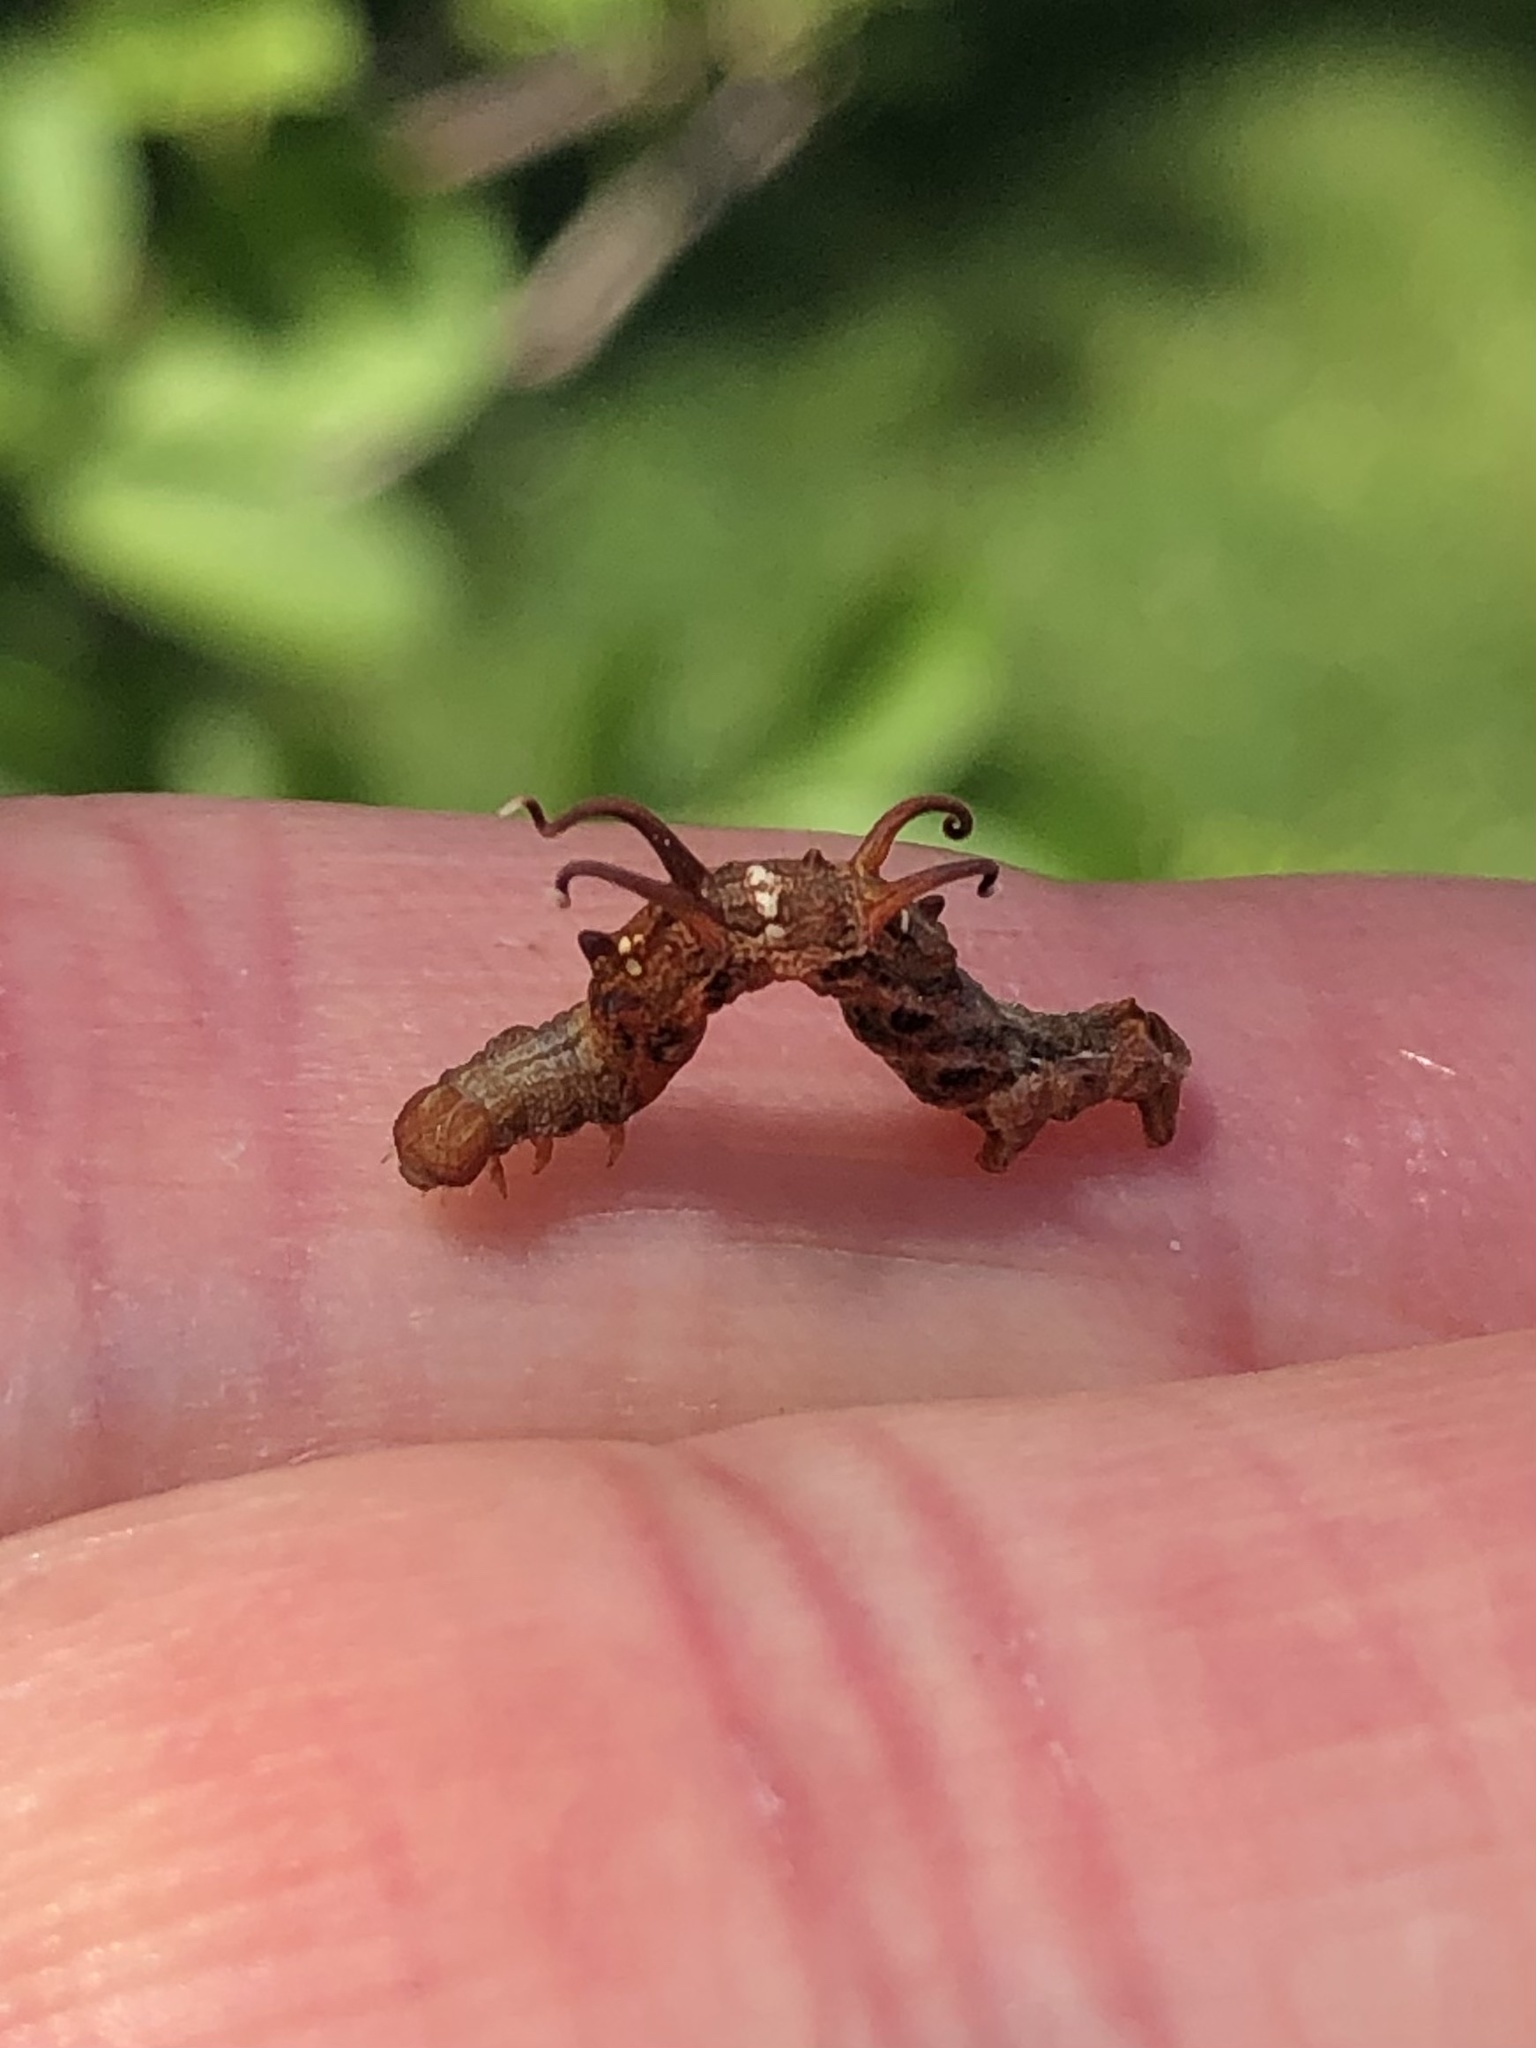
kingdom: Animalia
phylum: Arthropoda
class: Insecta
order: Lepidoptera
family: Geometridae
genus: Nematocampa
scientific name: Nematocampa resistaria
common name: Horned spanworm moth
